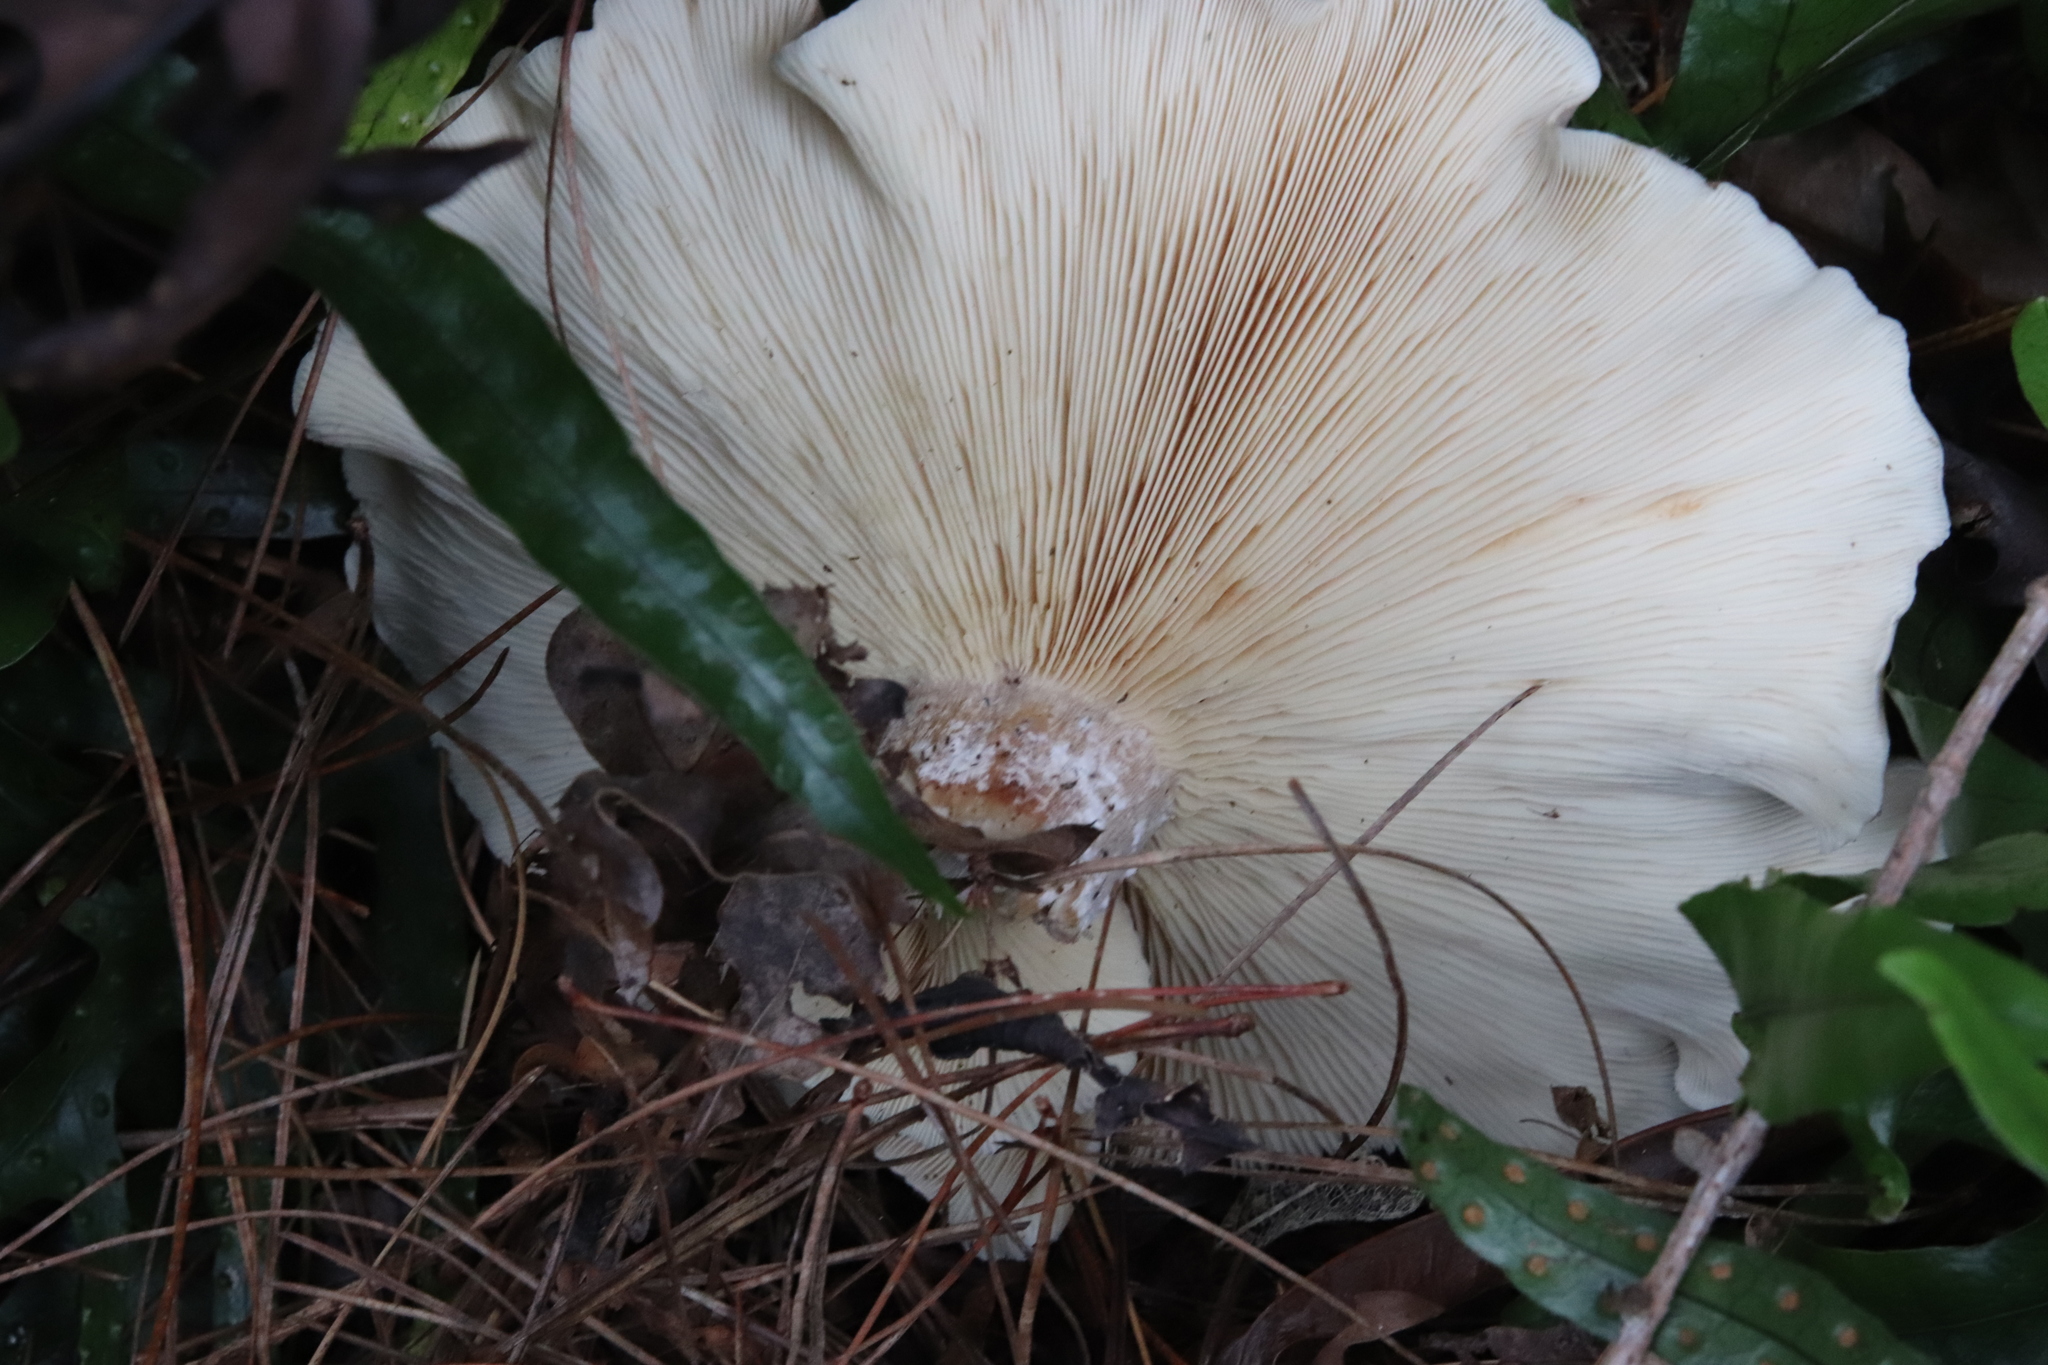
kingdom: Fungi
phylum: Basidiomycota
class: Agaricomycetes
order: Agaricales
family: Tricholomataceae
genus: Clitocybe
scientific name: Clitocybe nebularis
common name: Clouded agaric
